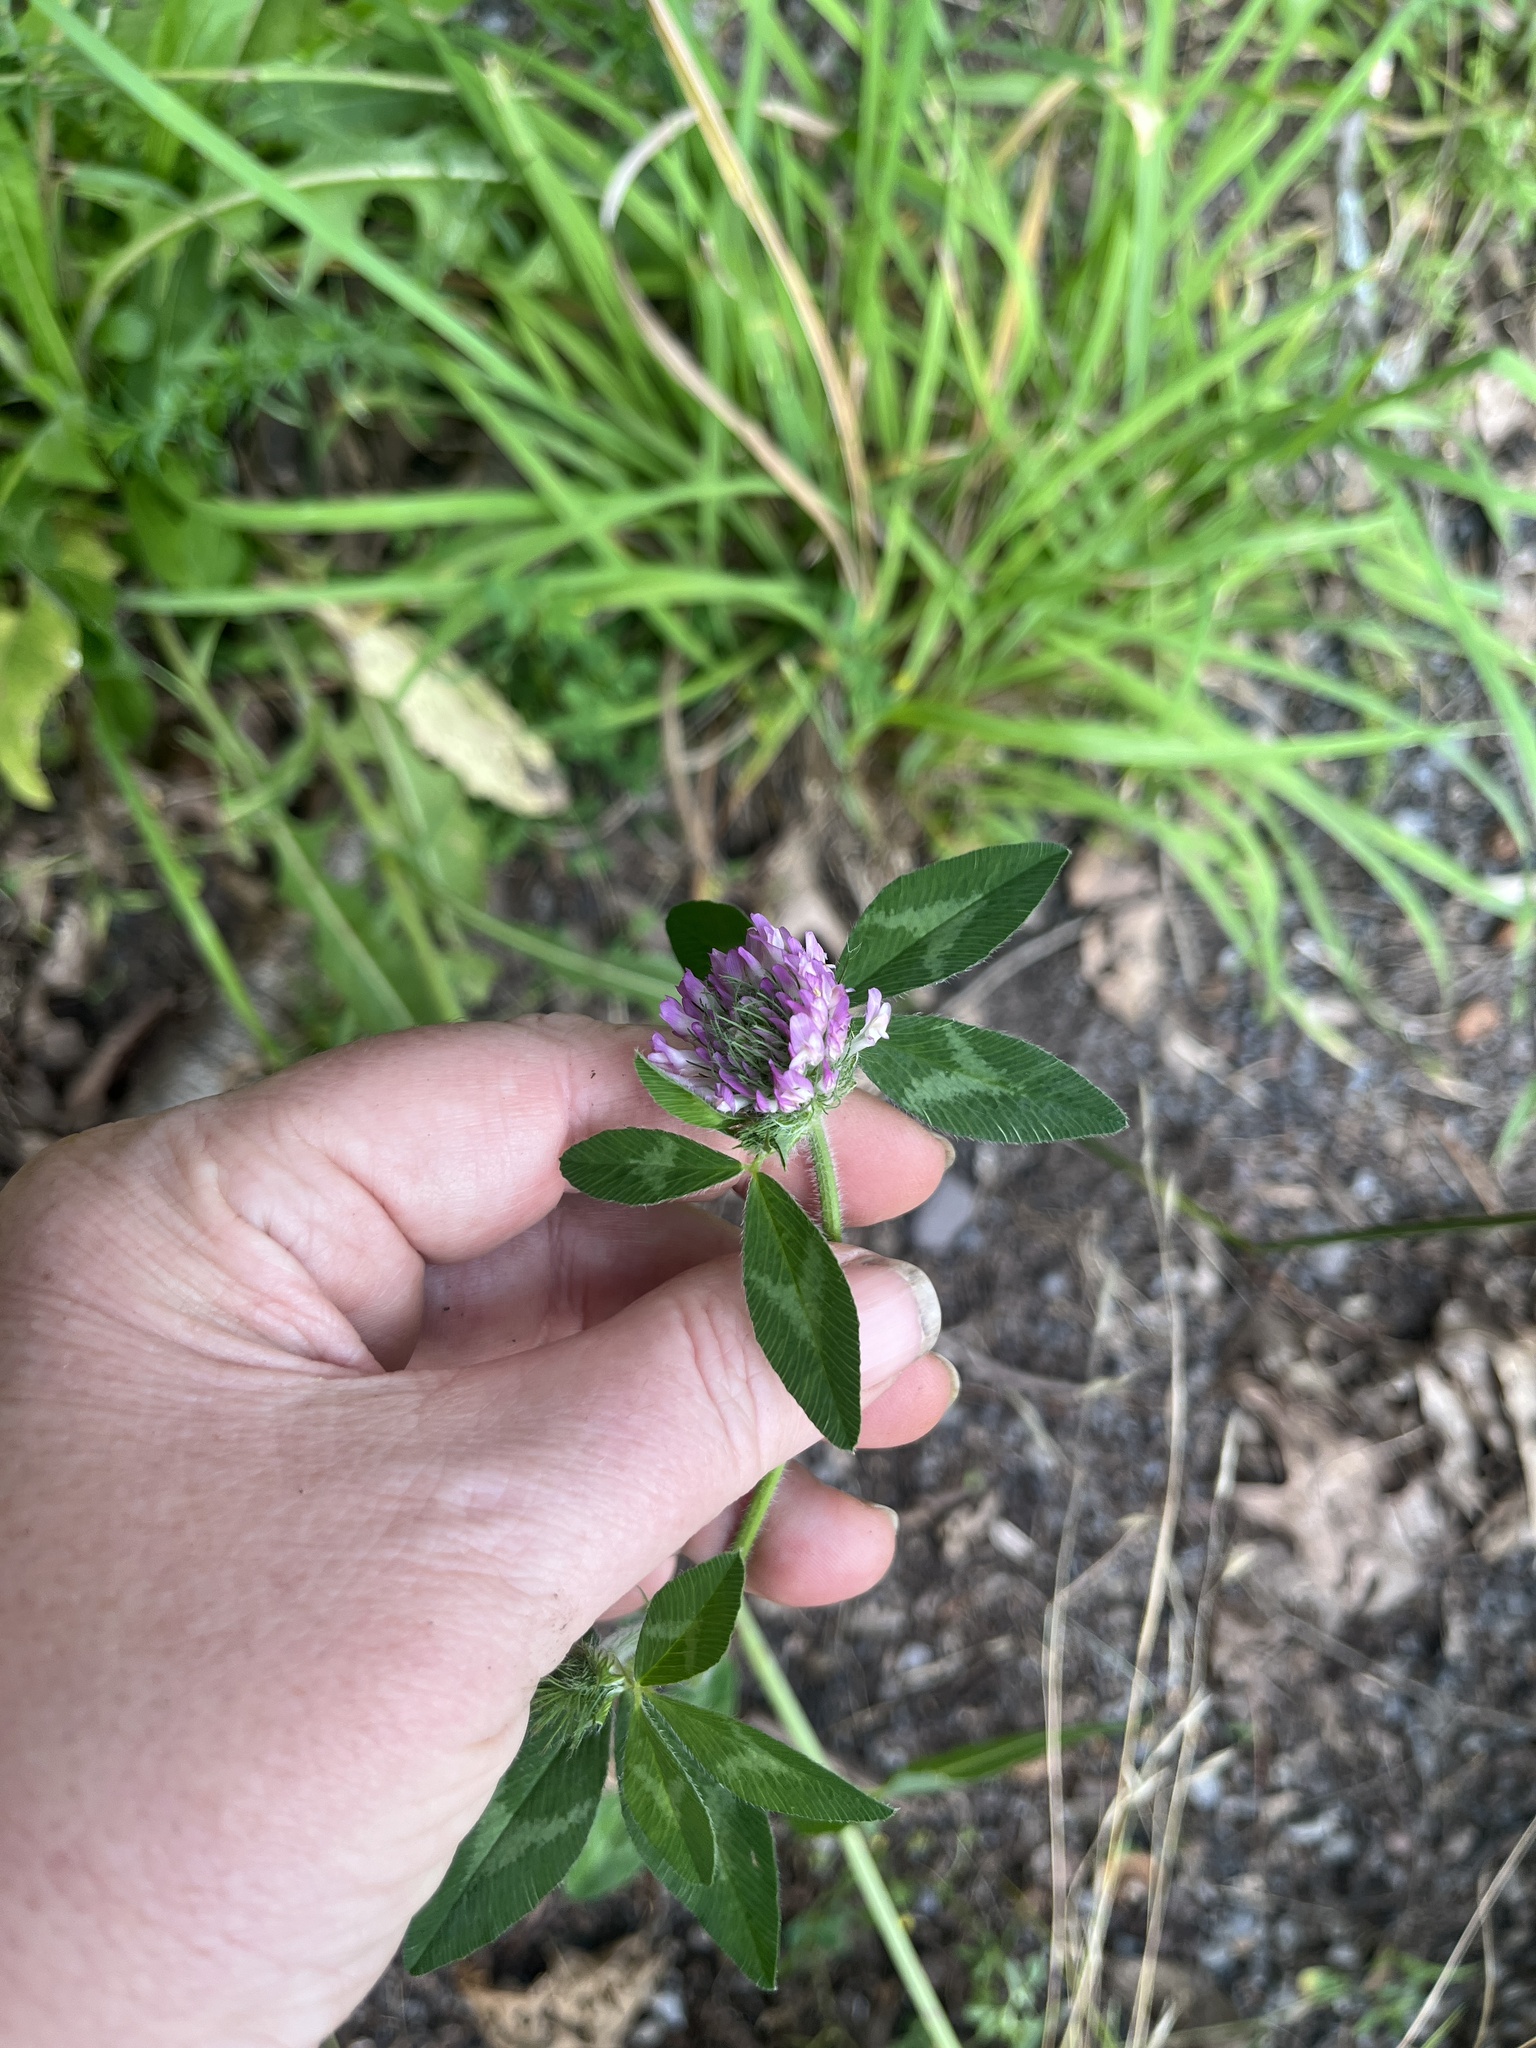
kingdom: Plantae
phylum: Tracheophyta
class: Magnoliopsida
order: Fabales
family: Fabaceae
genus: Trifolium
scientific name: Trifolium pratense
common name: Red clover
